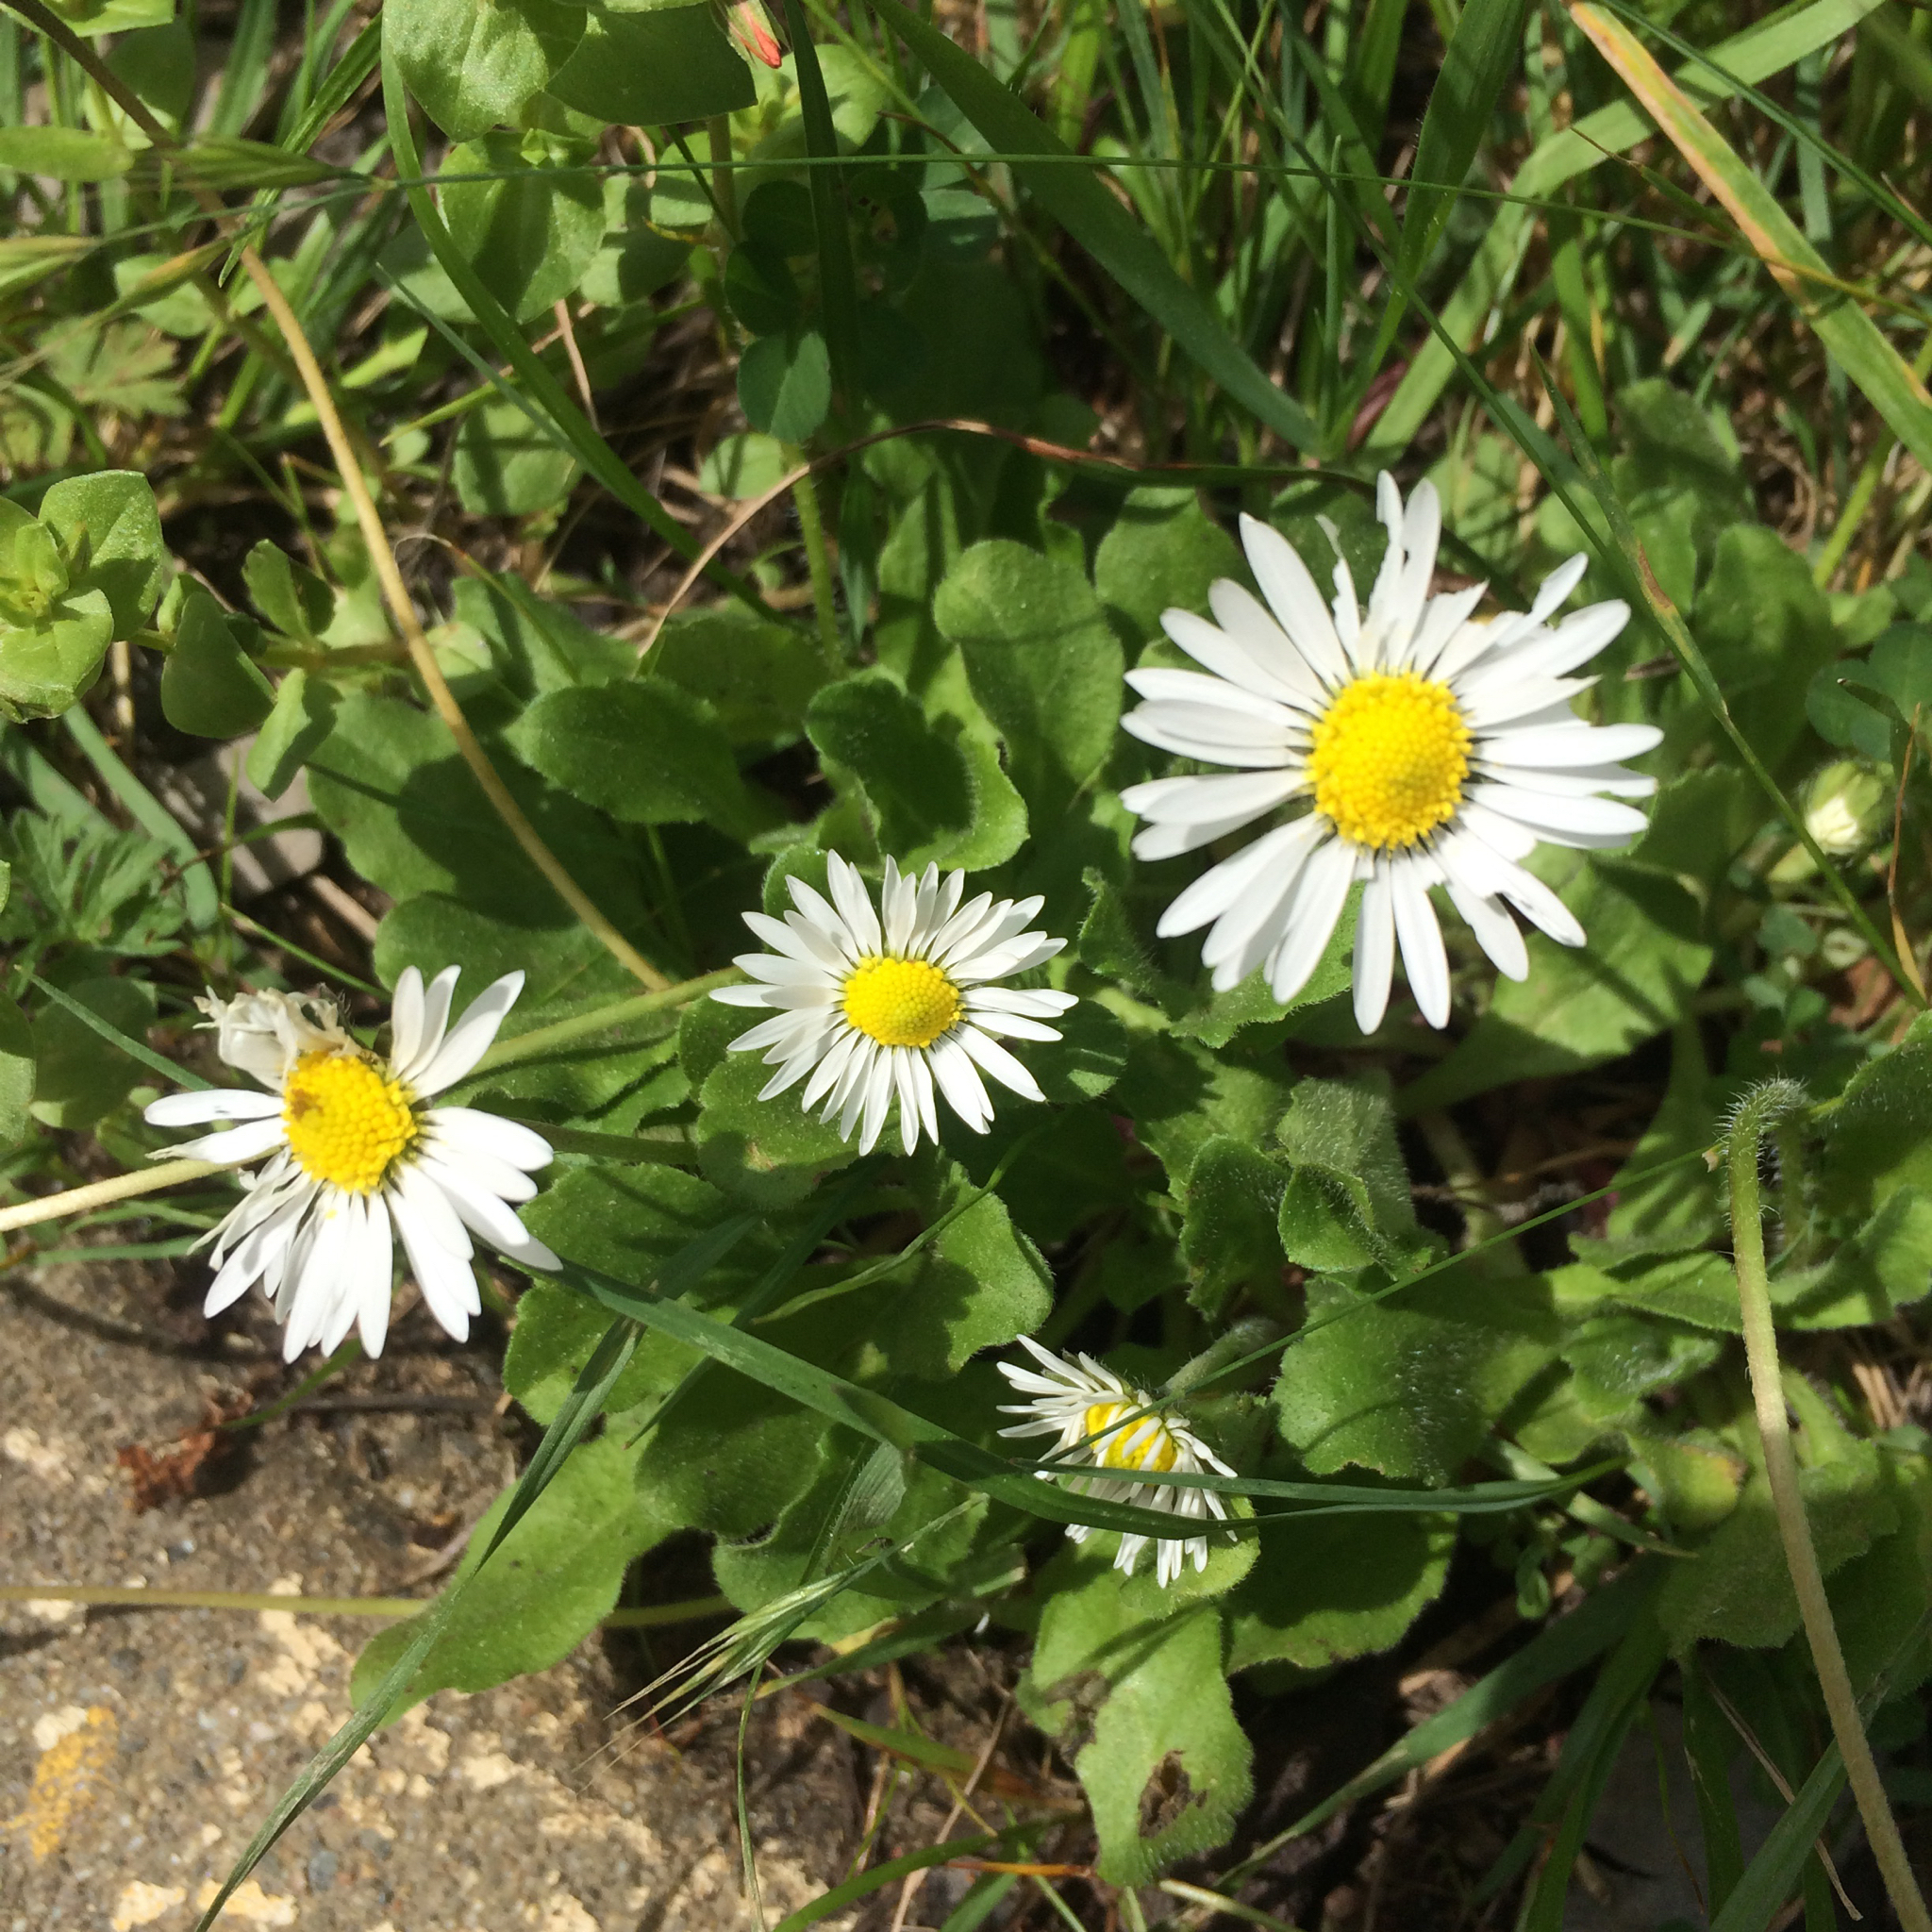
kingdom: Plantae
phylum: Tracheophyta
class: Magnoliopsida
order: Asterales
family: Asteraceae
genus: Bellis
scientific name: Bellis perennis
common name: Lawndaisy
